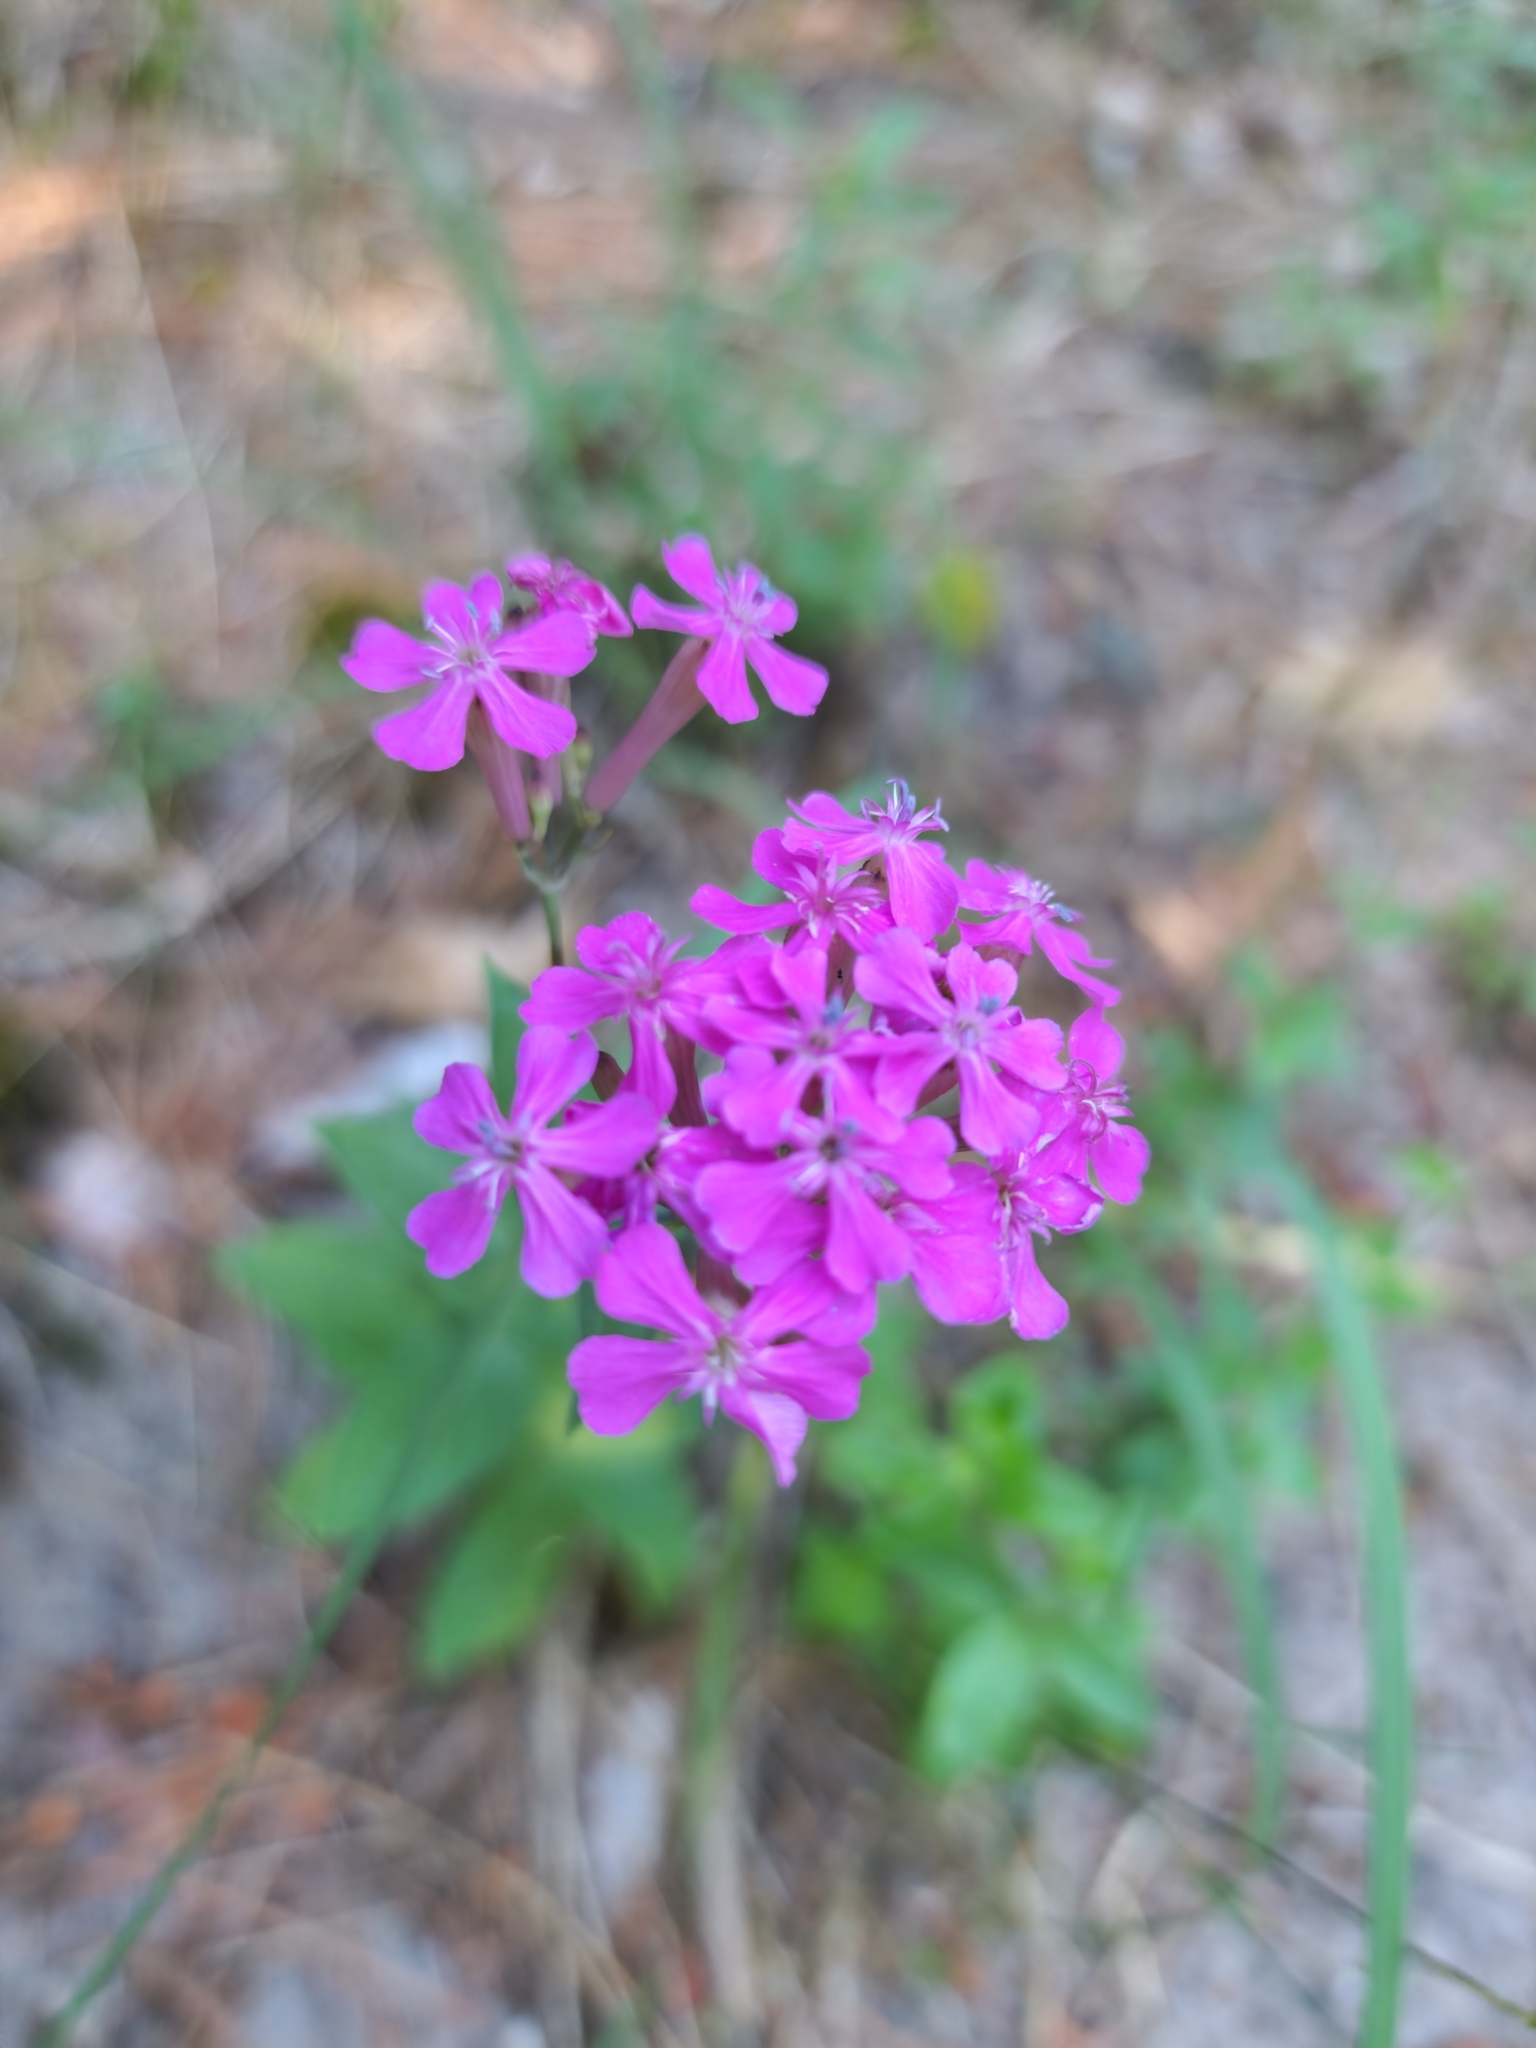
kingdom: Plantae
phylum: Tracheophyta
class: Magnoliopsida
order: Caryophyllales
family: Caryophyllaceae
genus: Atocion
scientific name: Atocion armeria
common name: Sweet william catchfly
